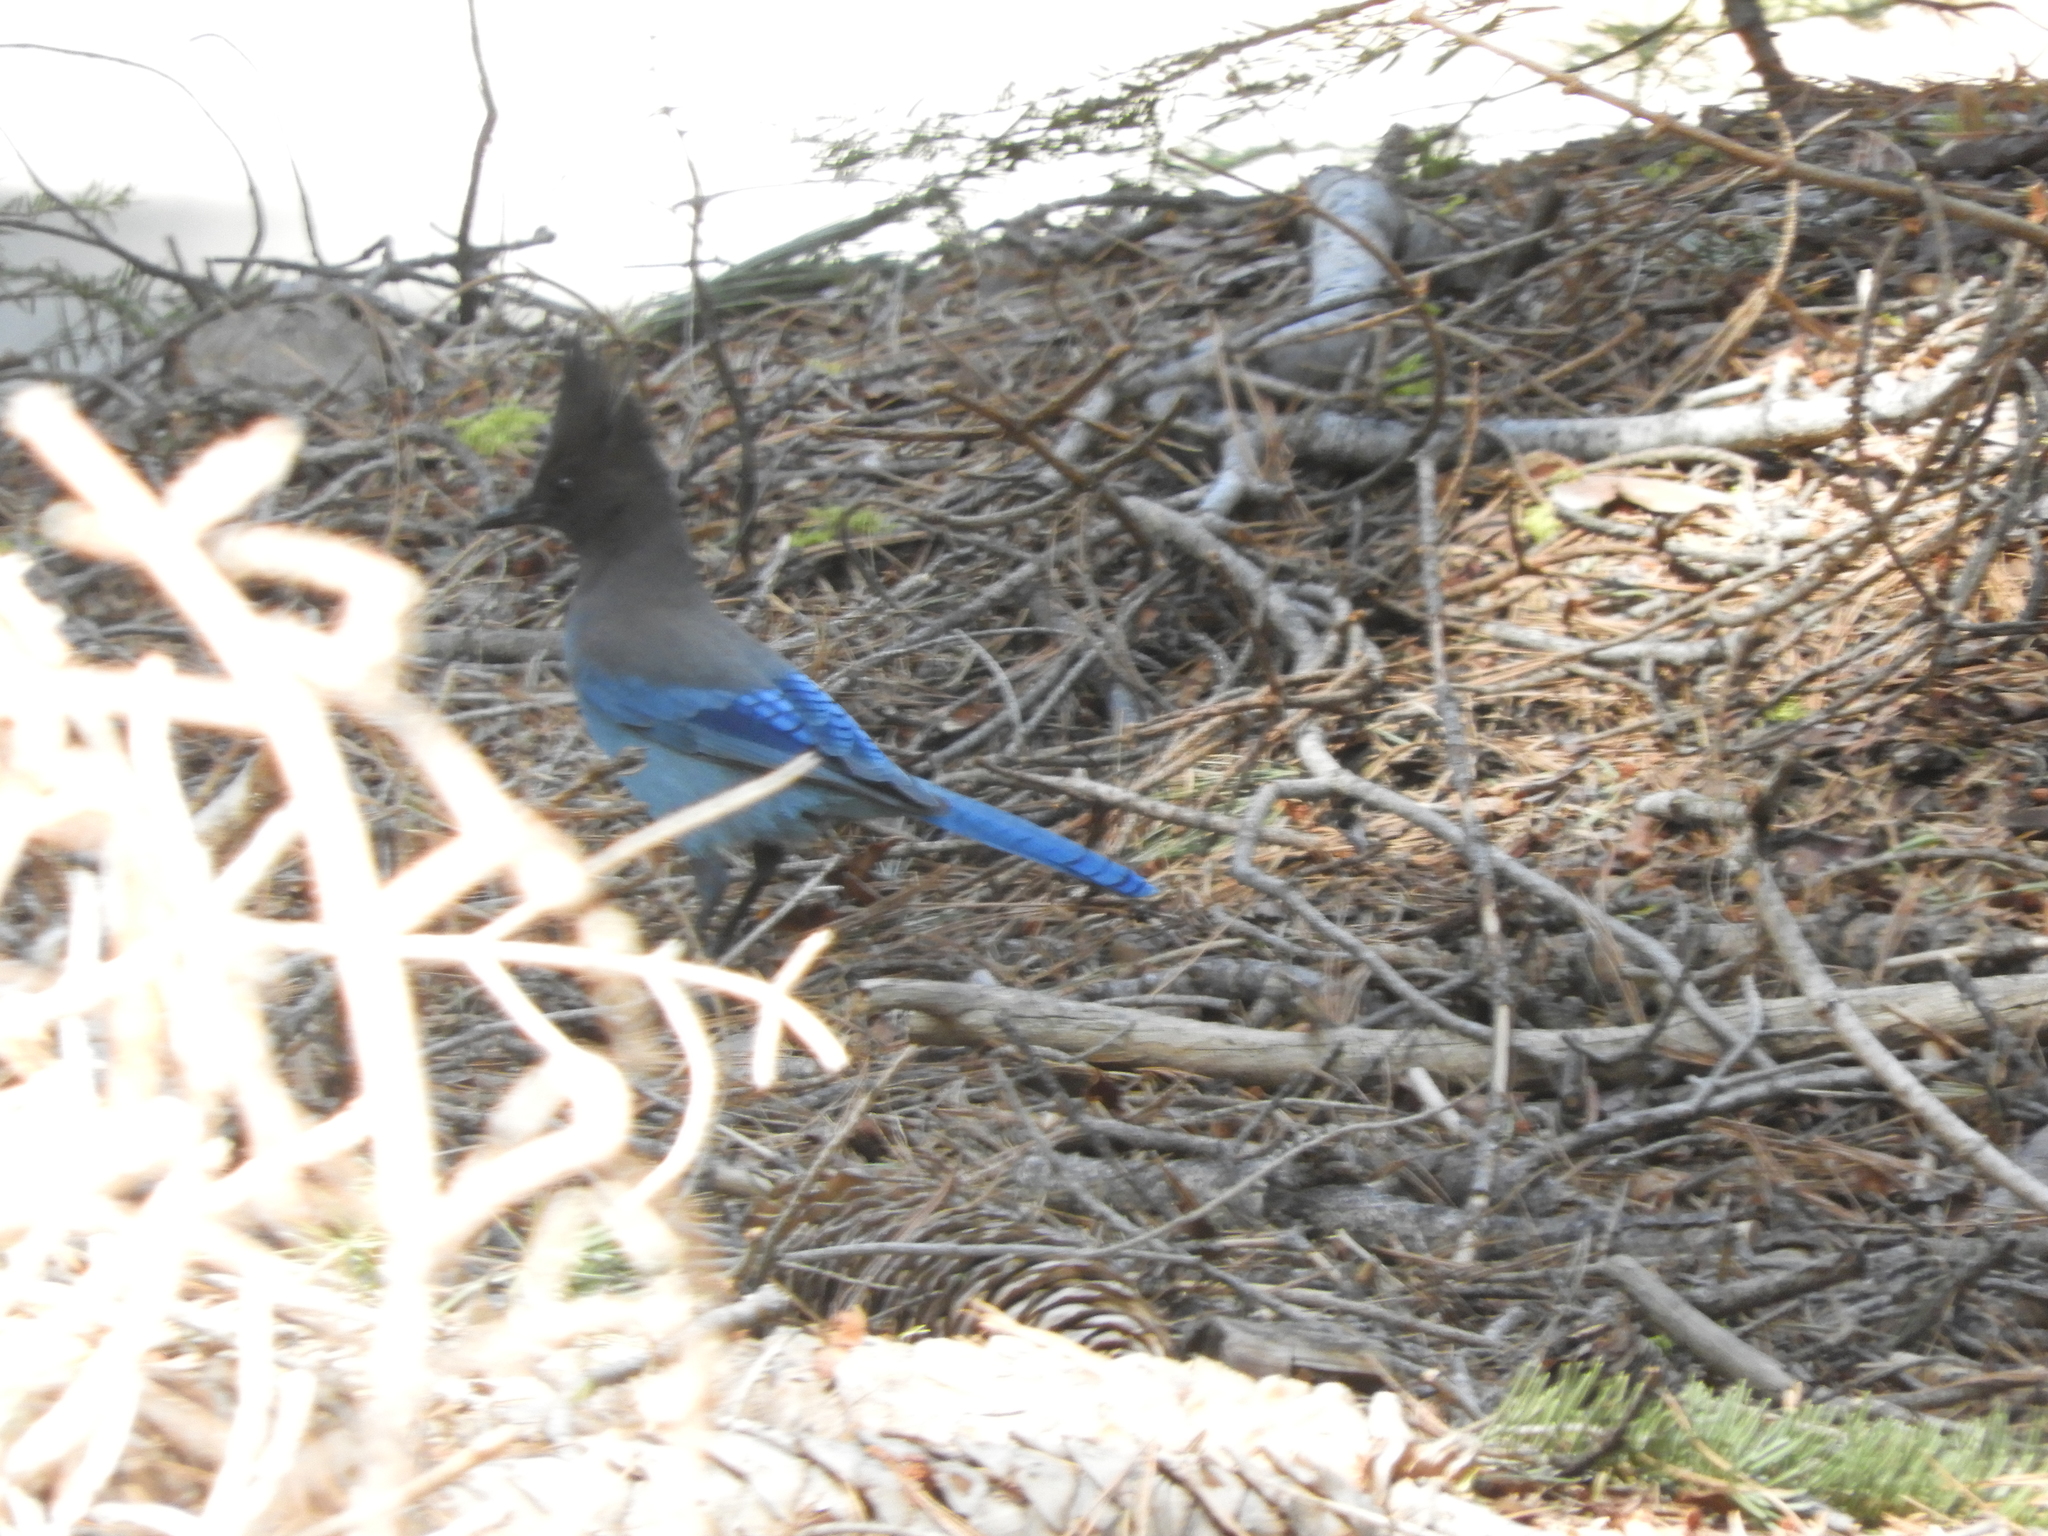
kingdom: Animalia
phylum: Chordata
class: Aves
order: Passeriformes
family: Corvidae
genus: Cyanocitta
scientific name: Cyanocitta stelleri
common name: Steller's jay
